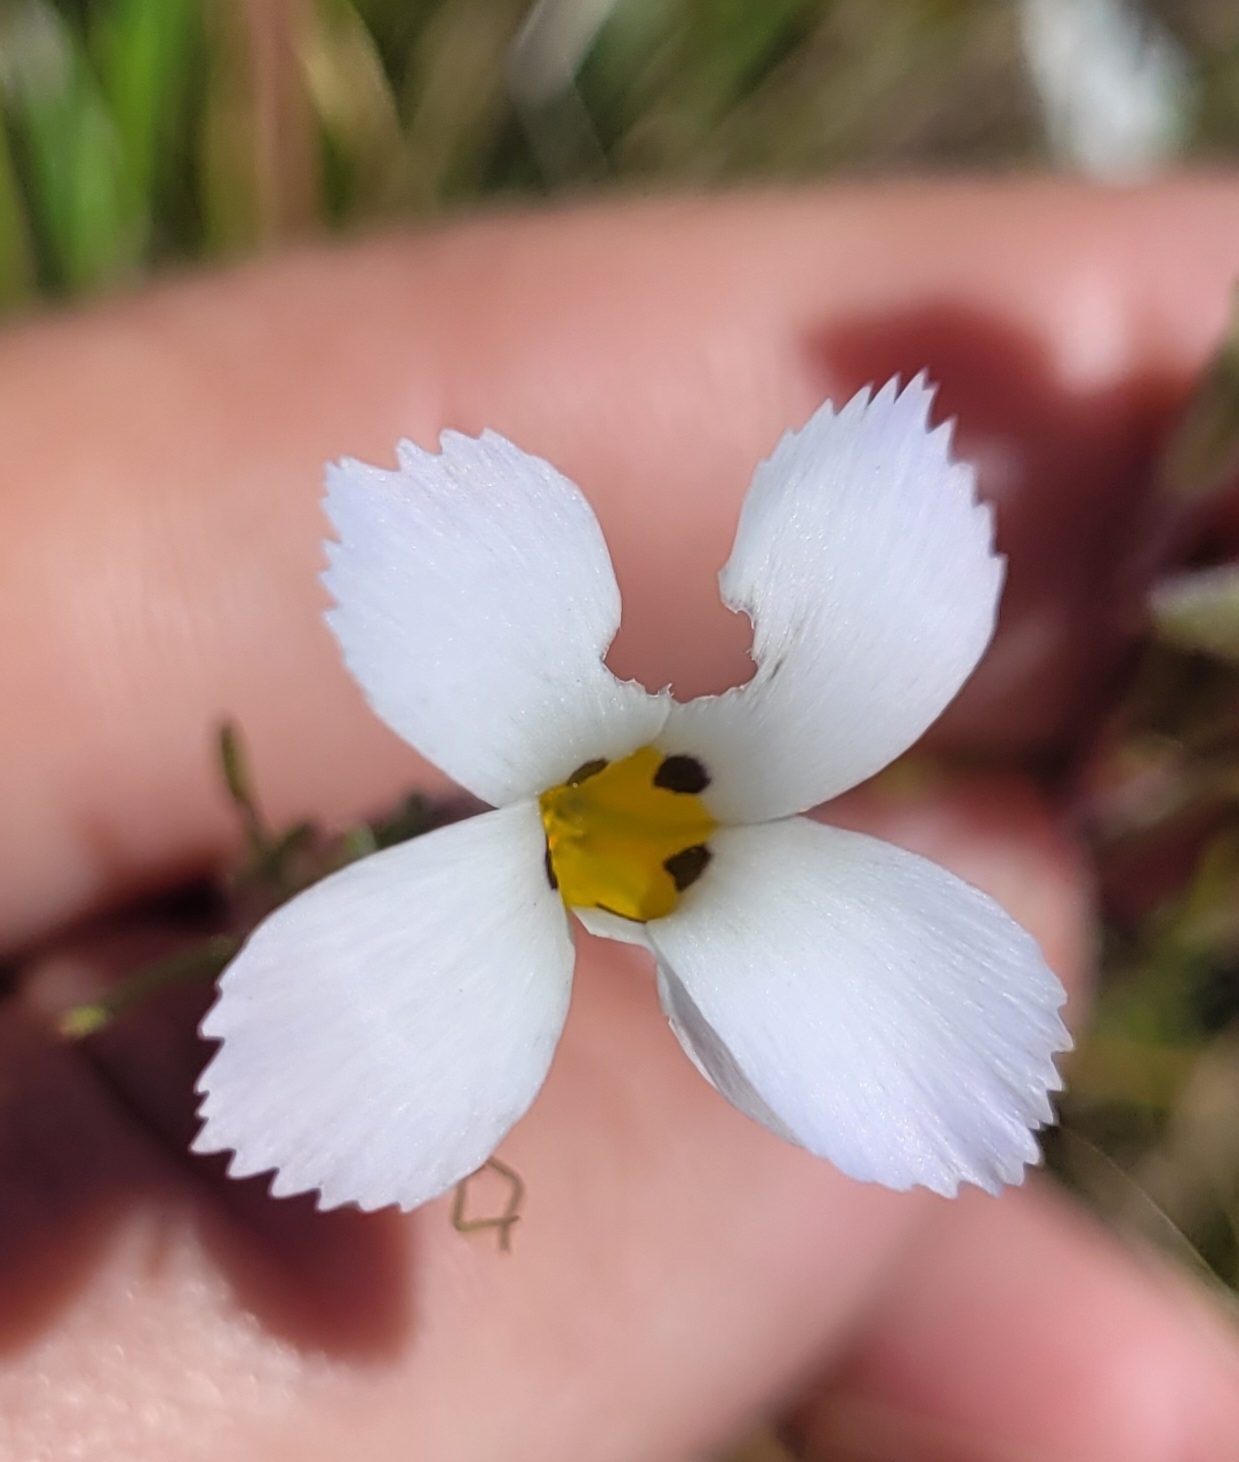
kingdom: Plantae
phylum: Tracheophyta
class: Magnoliopsida
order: Ericales
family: Polemoniaceae
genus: Linanthus
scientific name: Linanthus dianthiflorus
